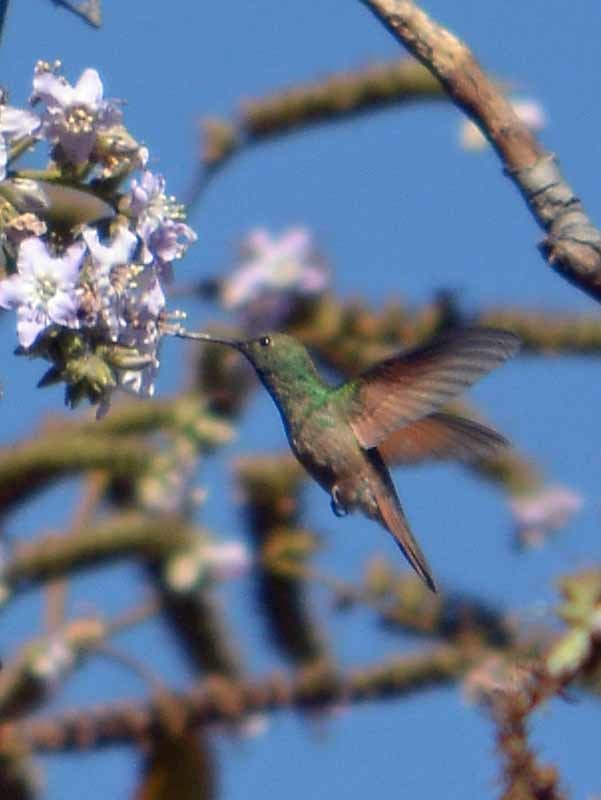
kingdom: Animalia
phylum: Chordata
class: Aves
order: Apodiformes
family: Trochilidae
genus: Saucerottia
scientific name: Saucerottia beryllina
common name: Berylline hummingbird
